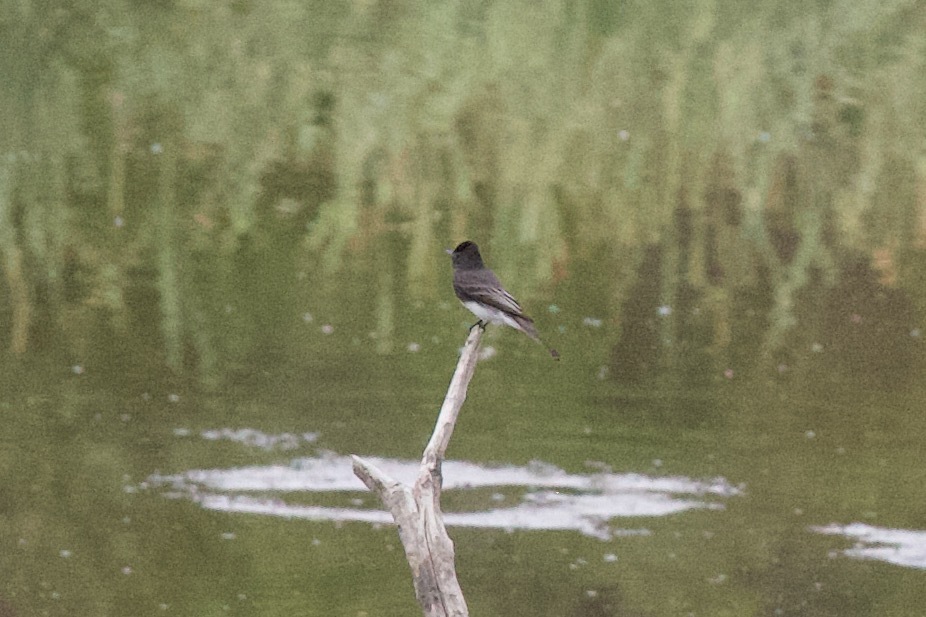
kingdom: Animalia
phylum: Chordata
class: Aves
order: Passeriformes
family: Tyrannidae
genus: Sayornis
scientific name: Sayornis nigricans
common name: Black phoebe
